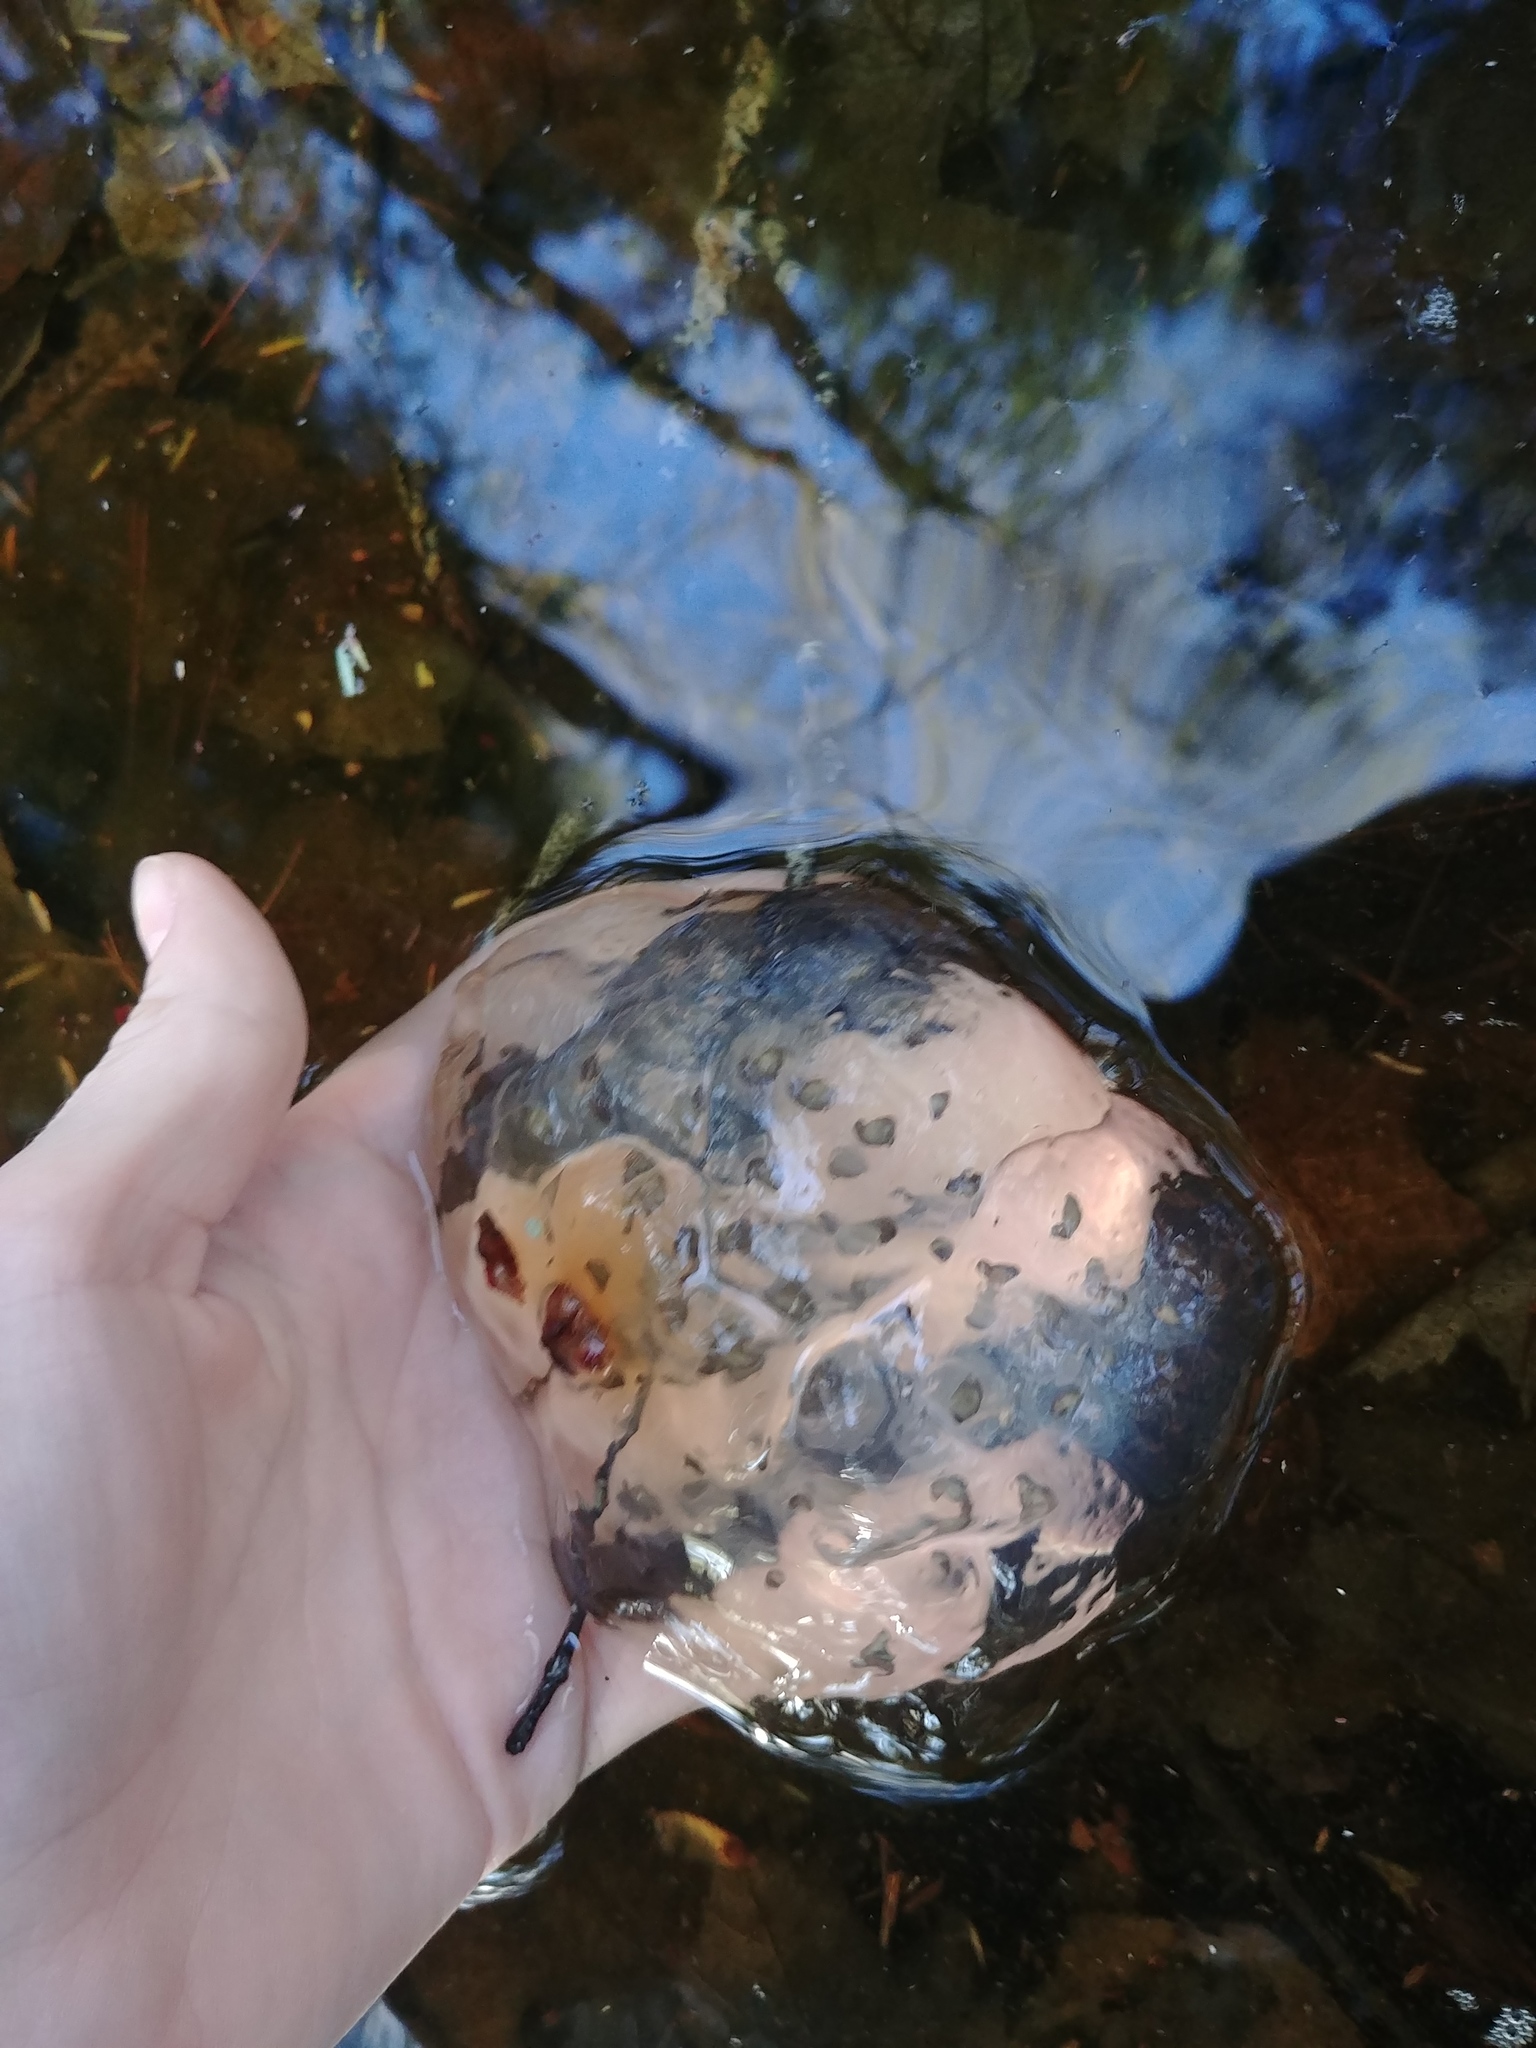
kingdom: Animalia
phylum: Chordata
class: Amphibia
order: Caudata
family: Ambystomatidae
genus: Ambystoma
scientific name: Ambystoma maculatum
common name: Spotted salamander
